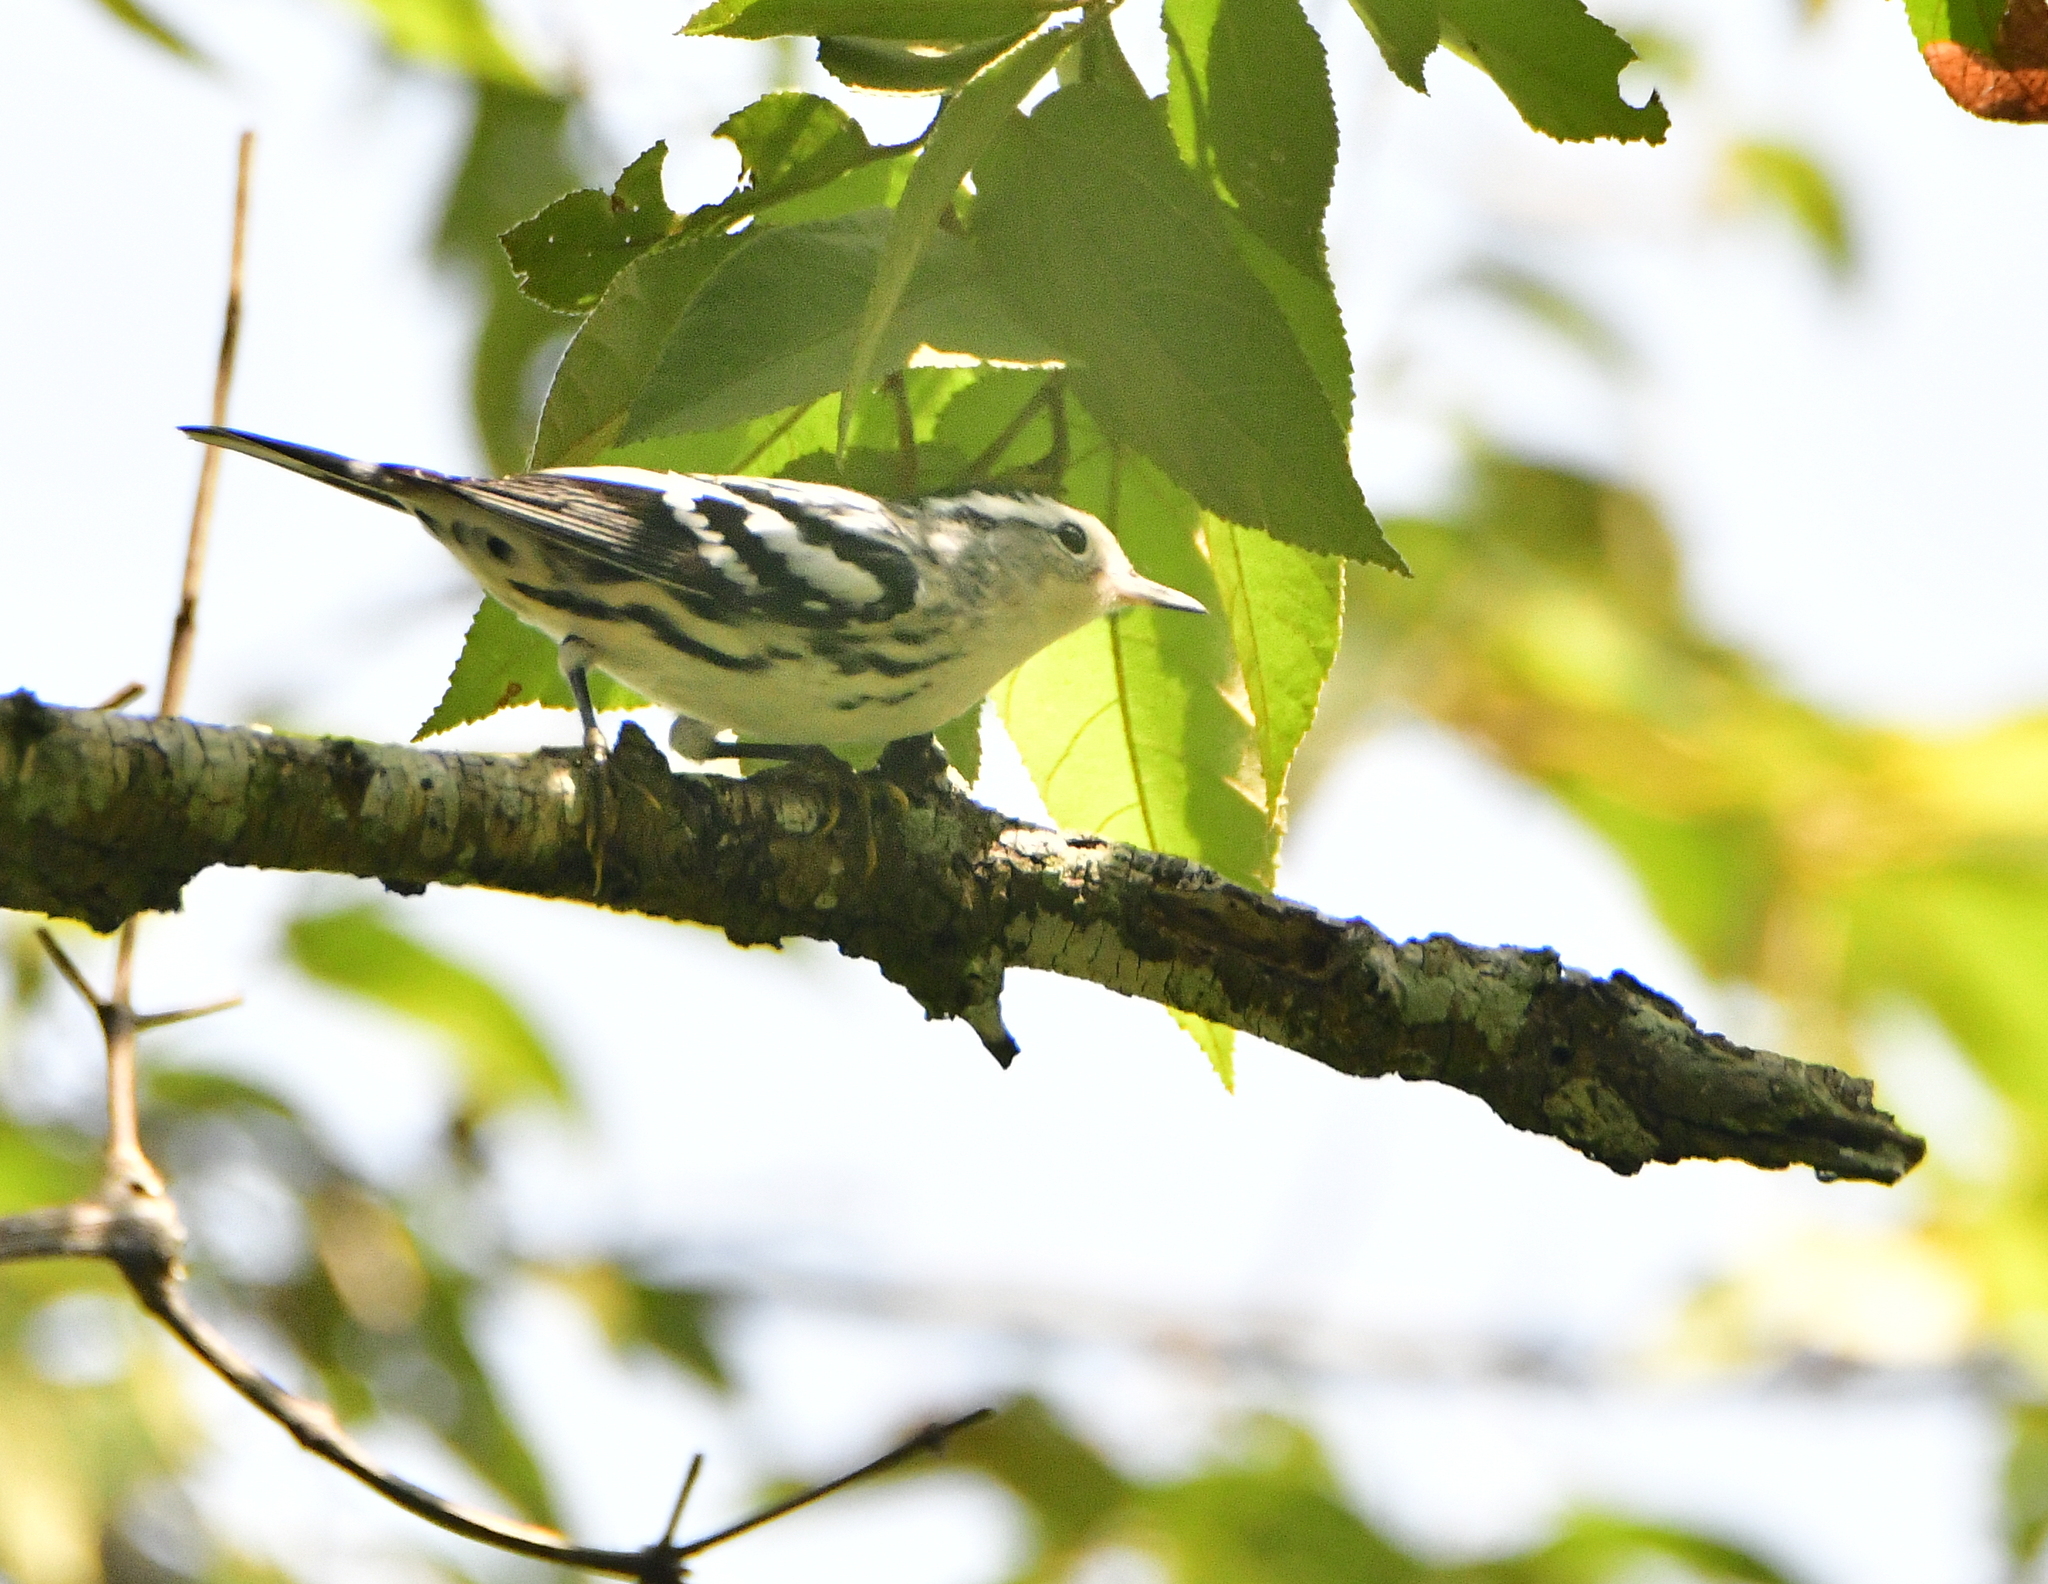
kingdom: Animalia
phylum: Chordata
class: Aves
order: Passeriformes
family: Parulidae
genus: Mniotilta
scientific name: Mniotilta varia
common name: Black-and-white warbler
